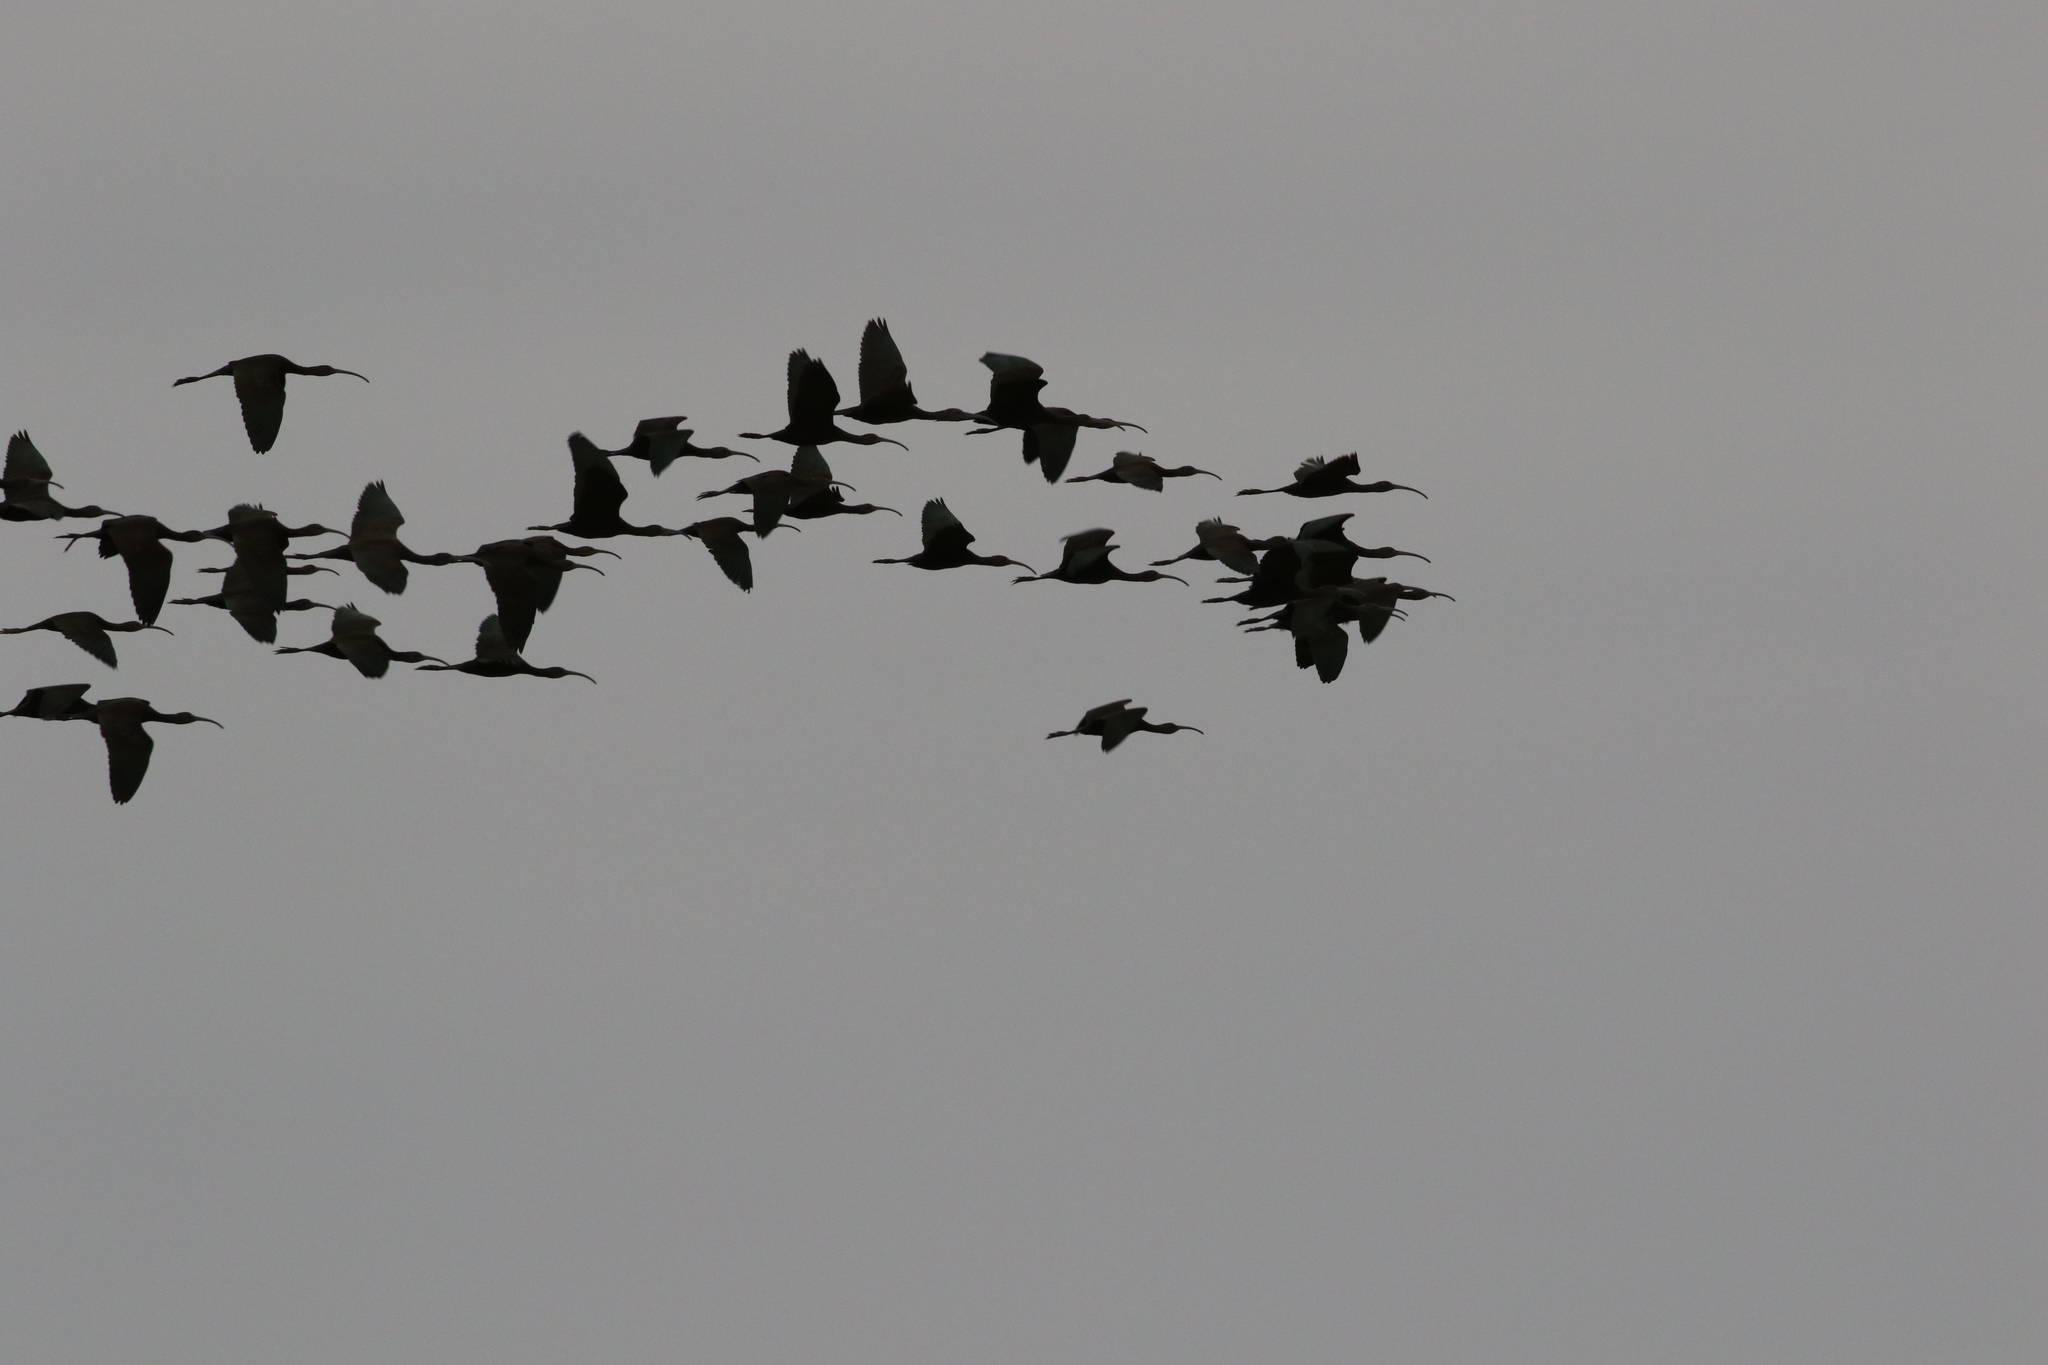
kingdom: Animalia
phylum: Chordata
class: Aves
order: Pelecaniformes
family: Threskiornithidae
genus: Plegadis
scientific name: Plegadis chihi
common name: White-faced ibis
